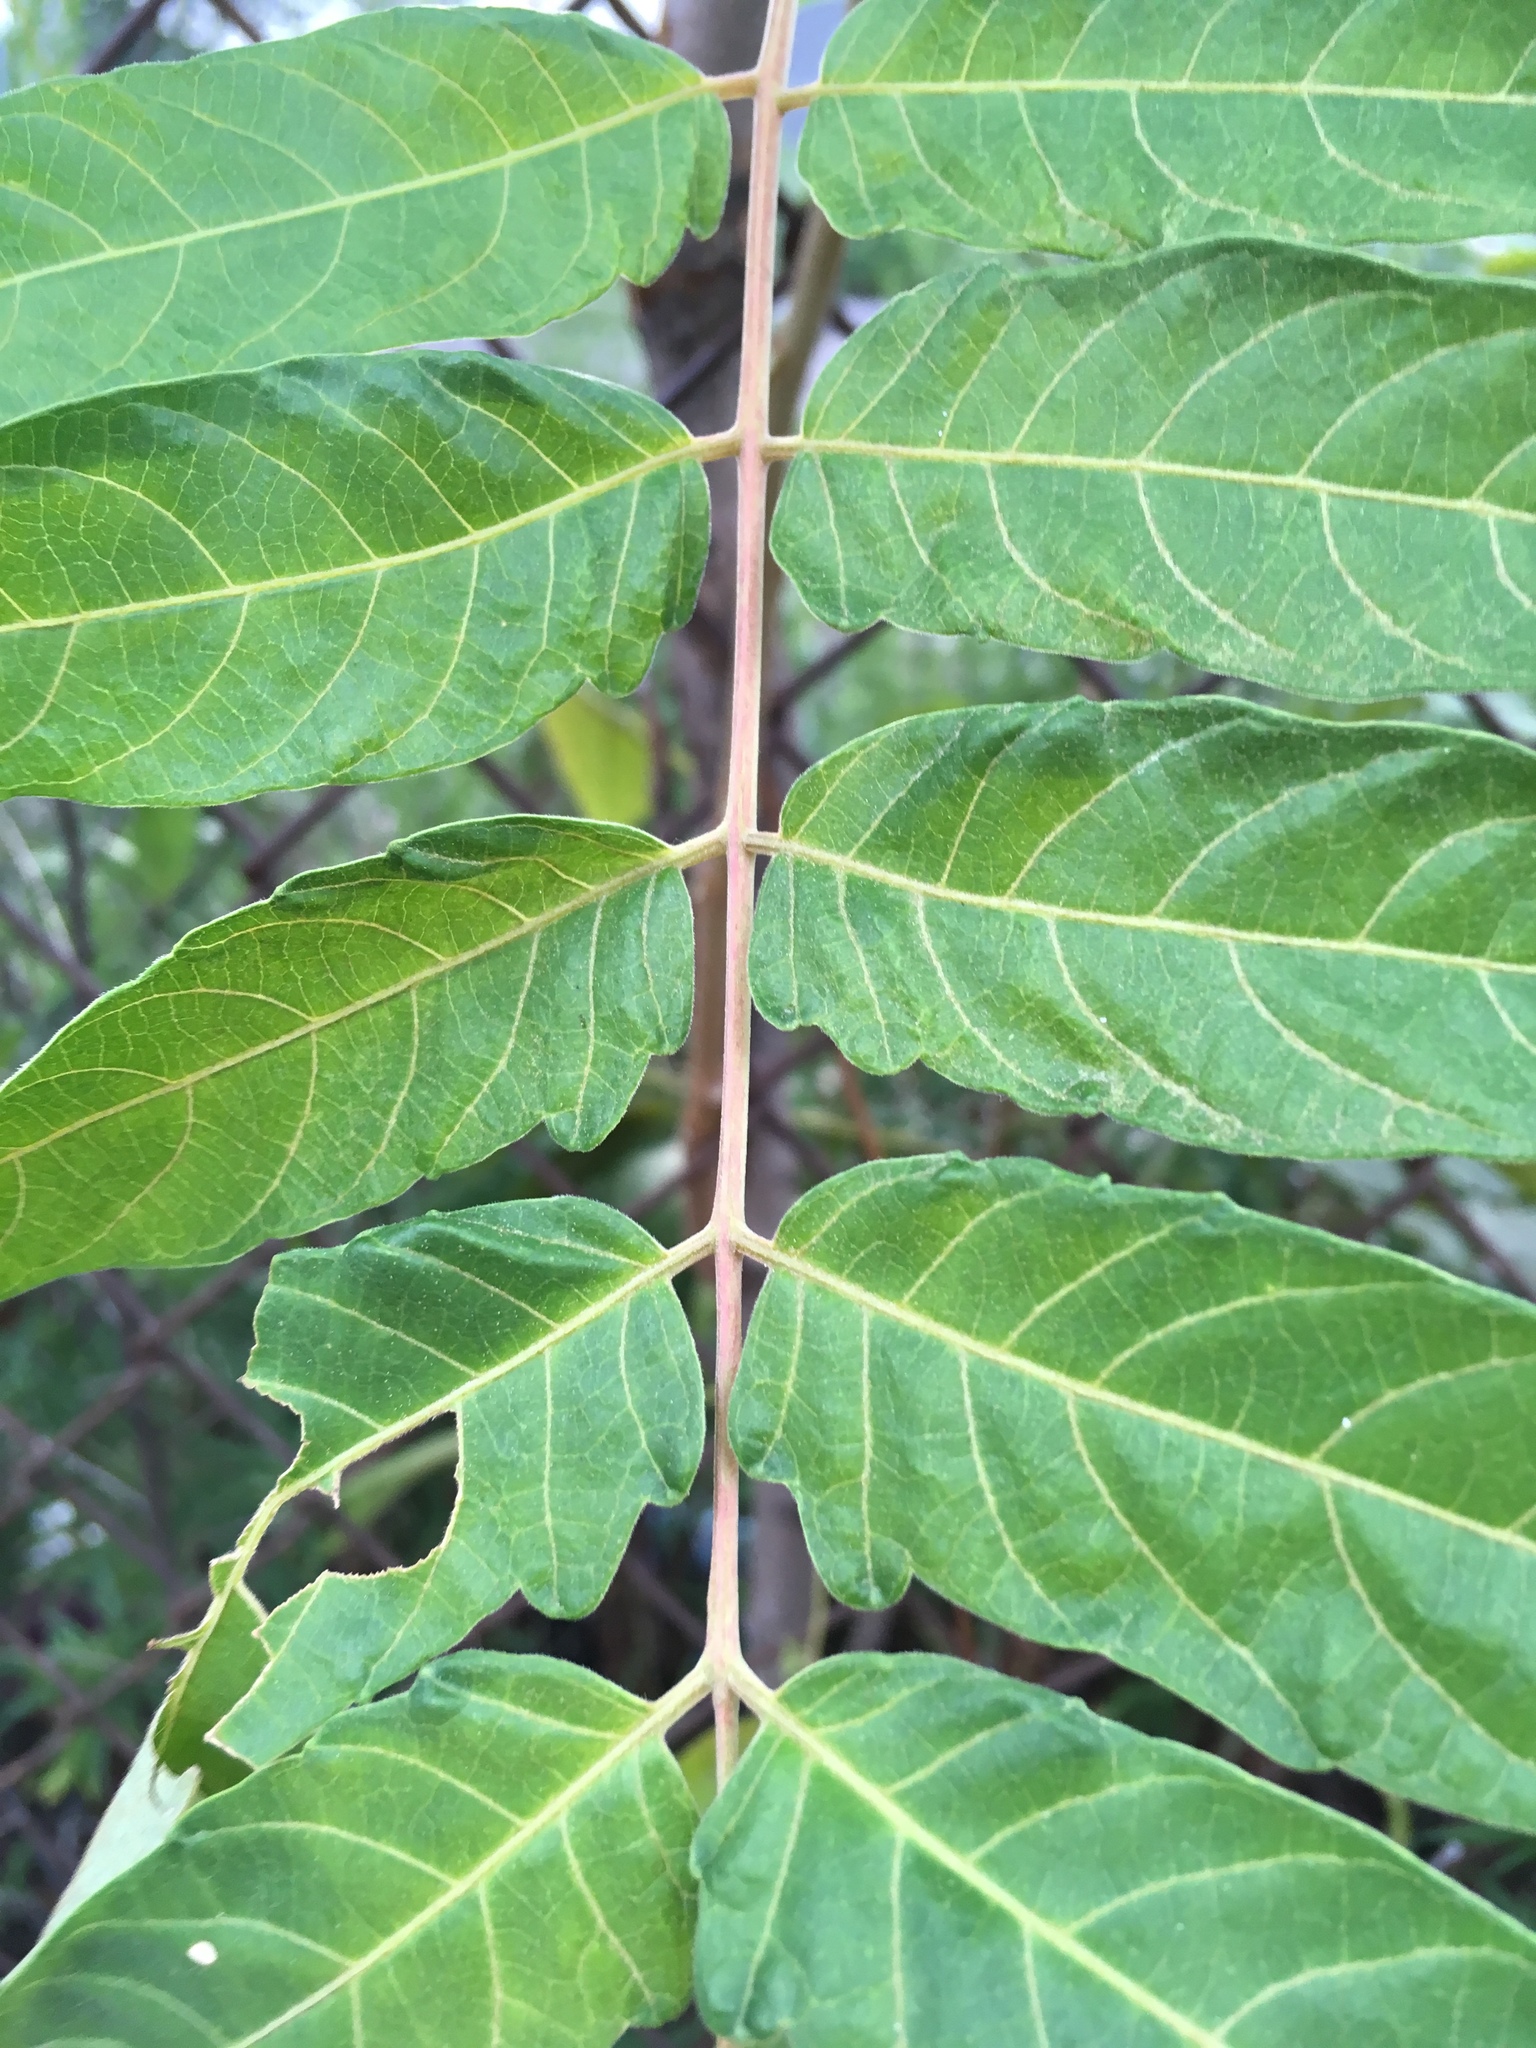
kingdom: Plantae
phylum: Tracheophyta
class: Magnoliopsida
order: Sapindales
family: Simaroubaceae
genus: Ailanthus
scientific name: Ailanthus altissima
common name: Tree-of-heaven
